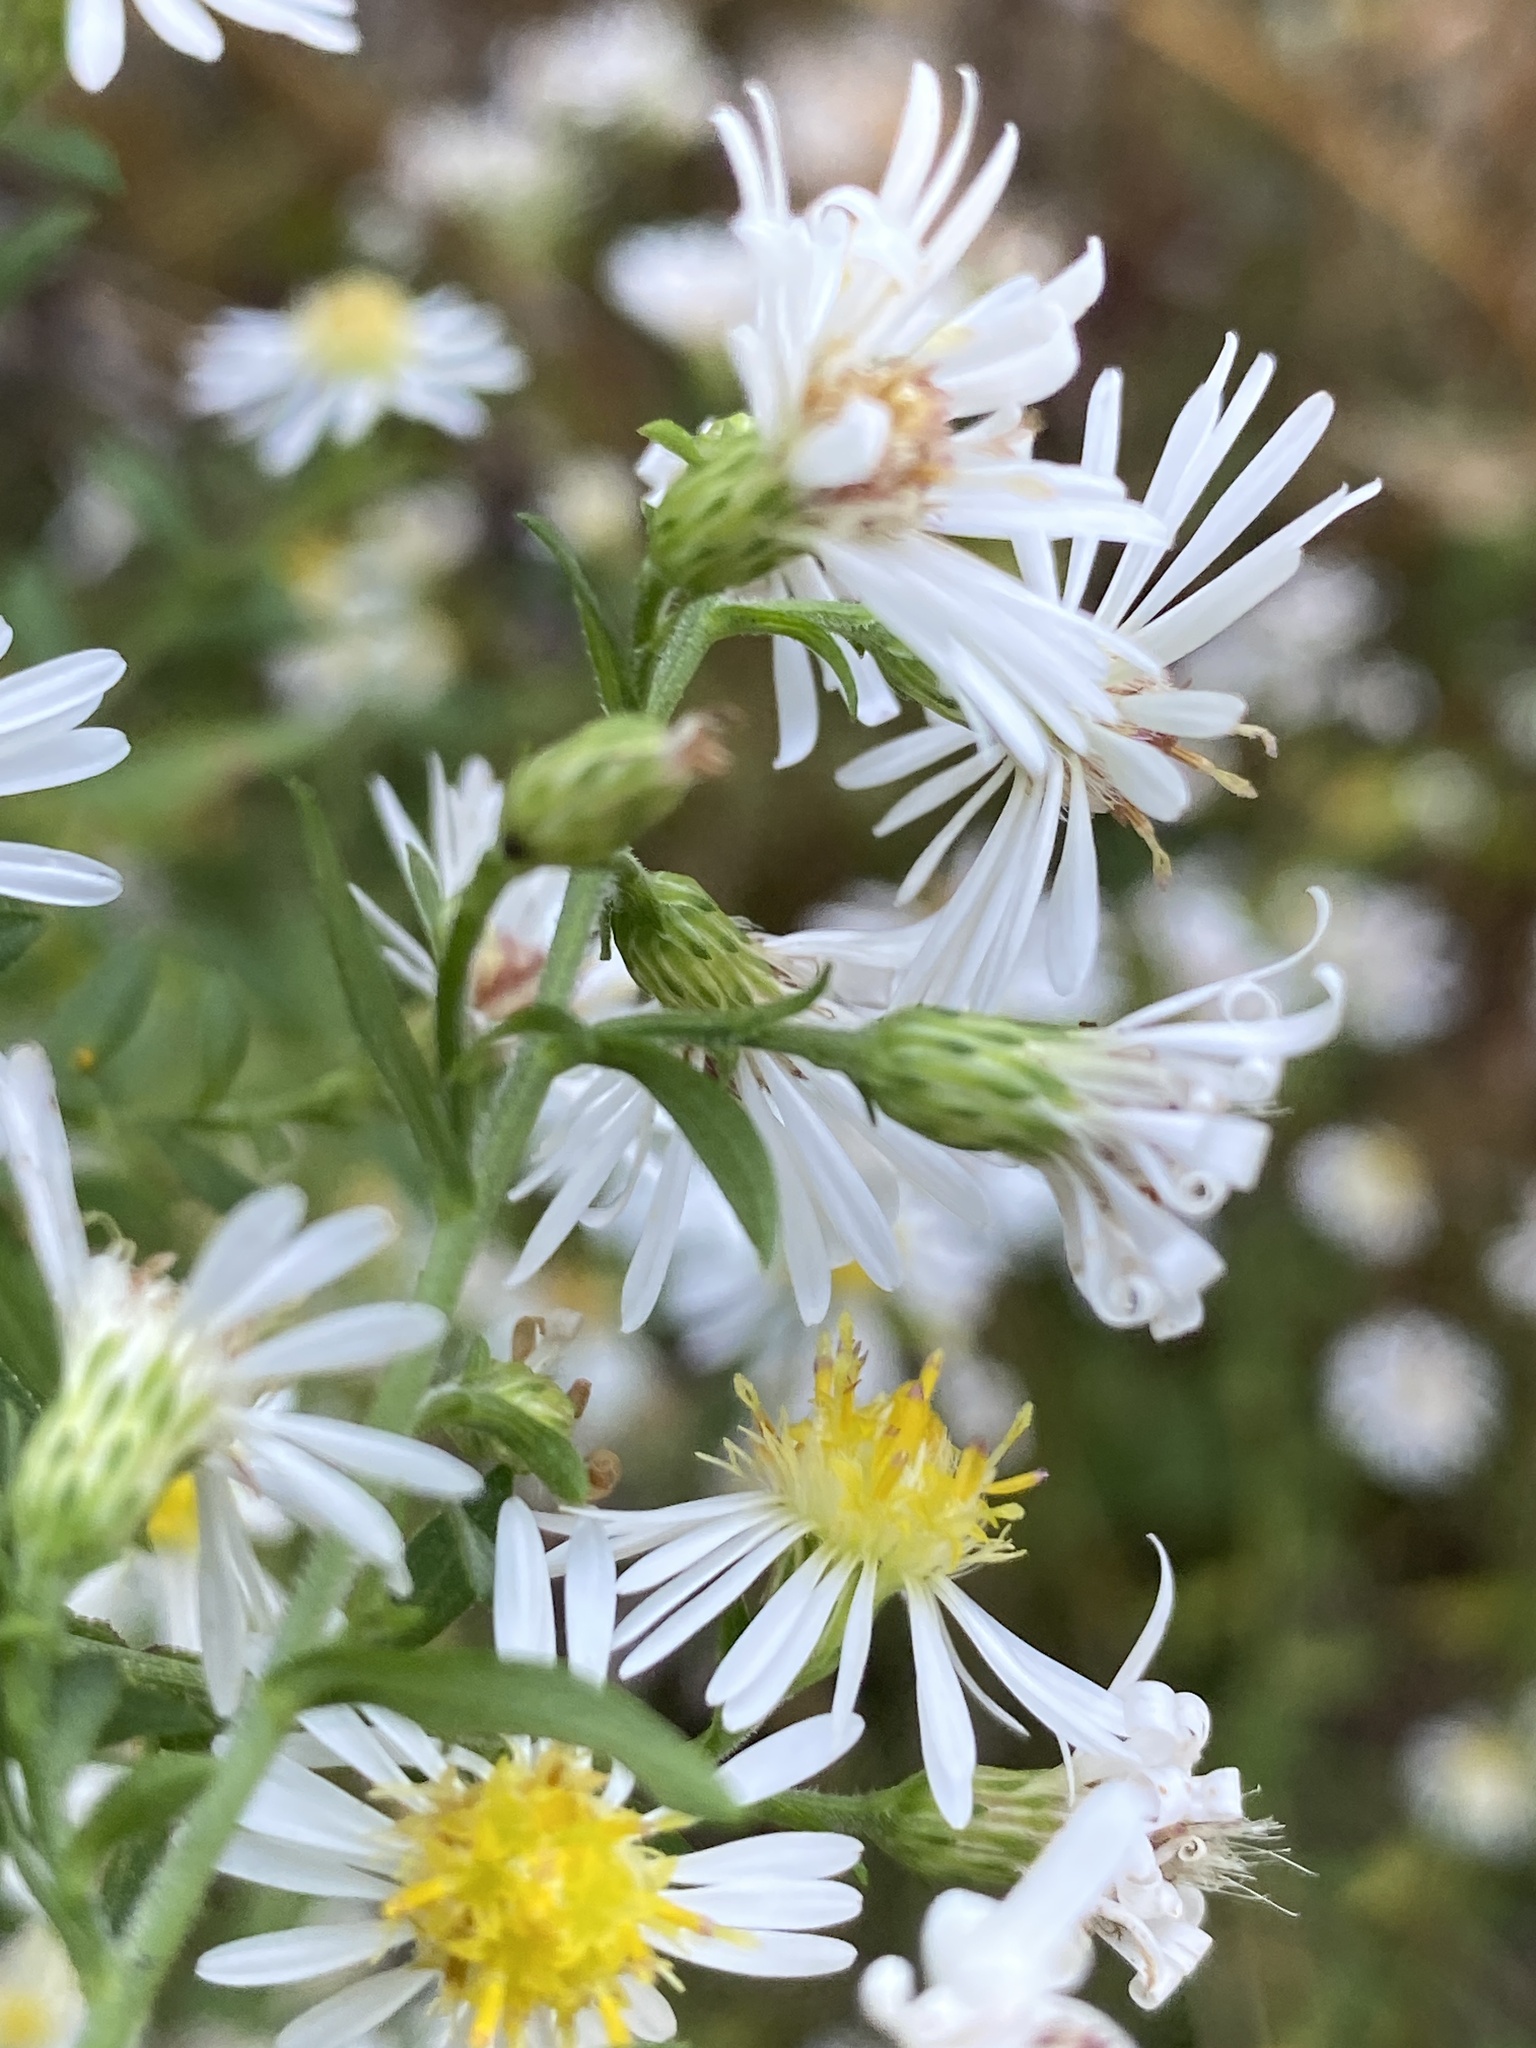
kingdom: Plantae
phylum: Tracheophyta
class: Magnoliopsida
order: Asterales
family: Asteraceae
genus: Symphyotrichum
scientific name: Symphyotrichum lanceolatum
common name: Panicled aster
